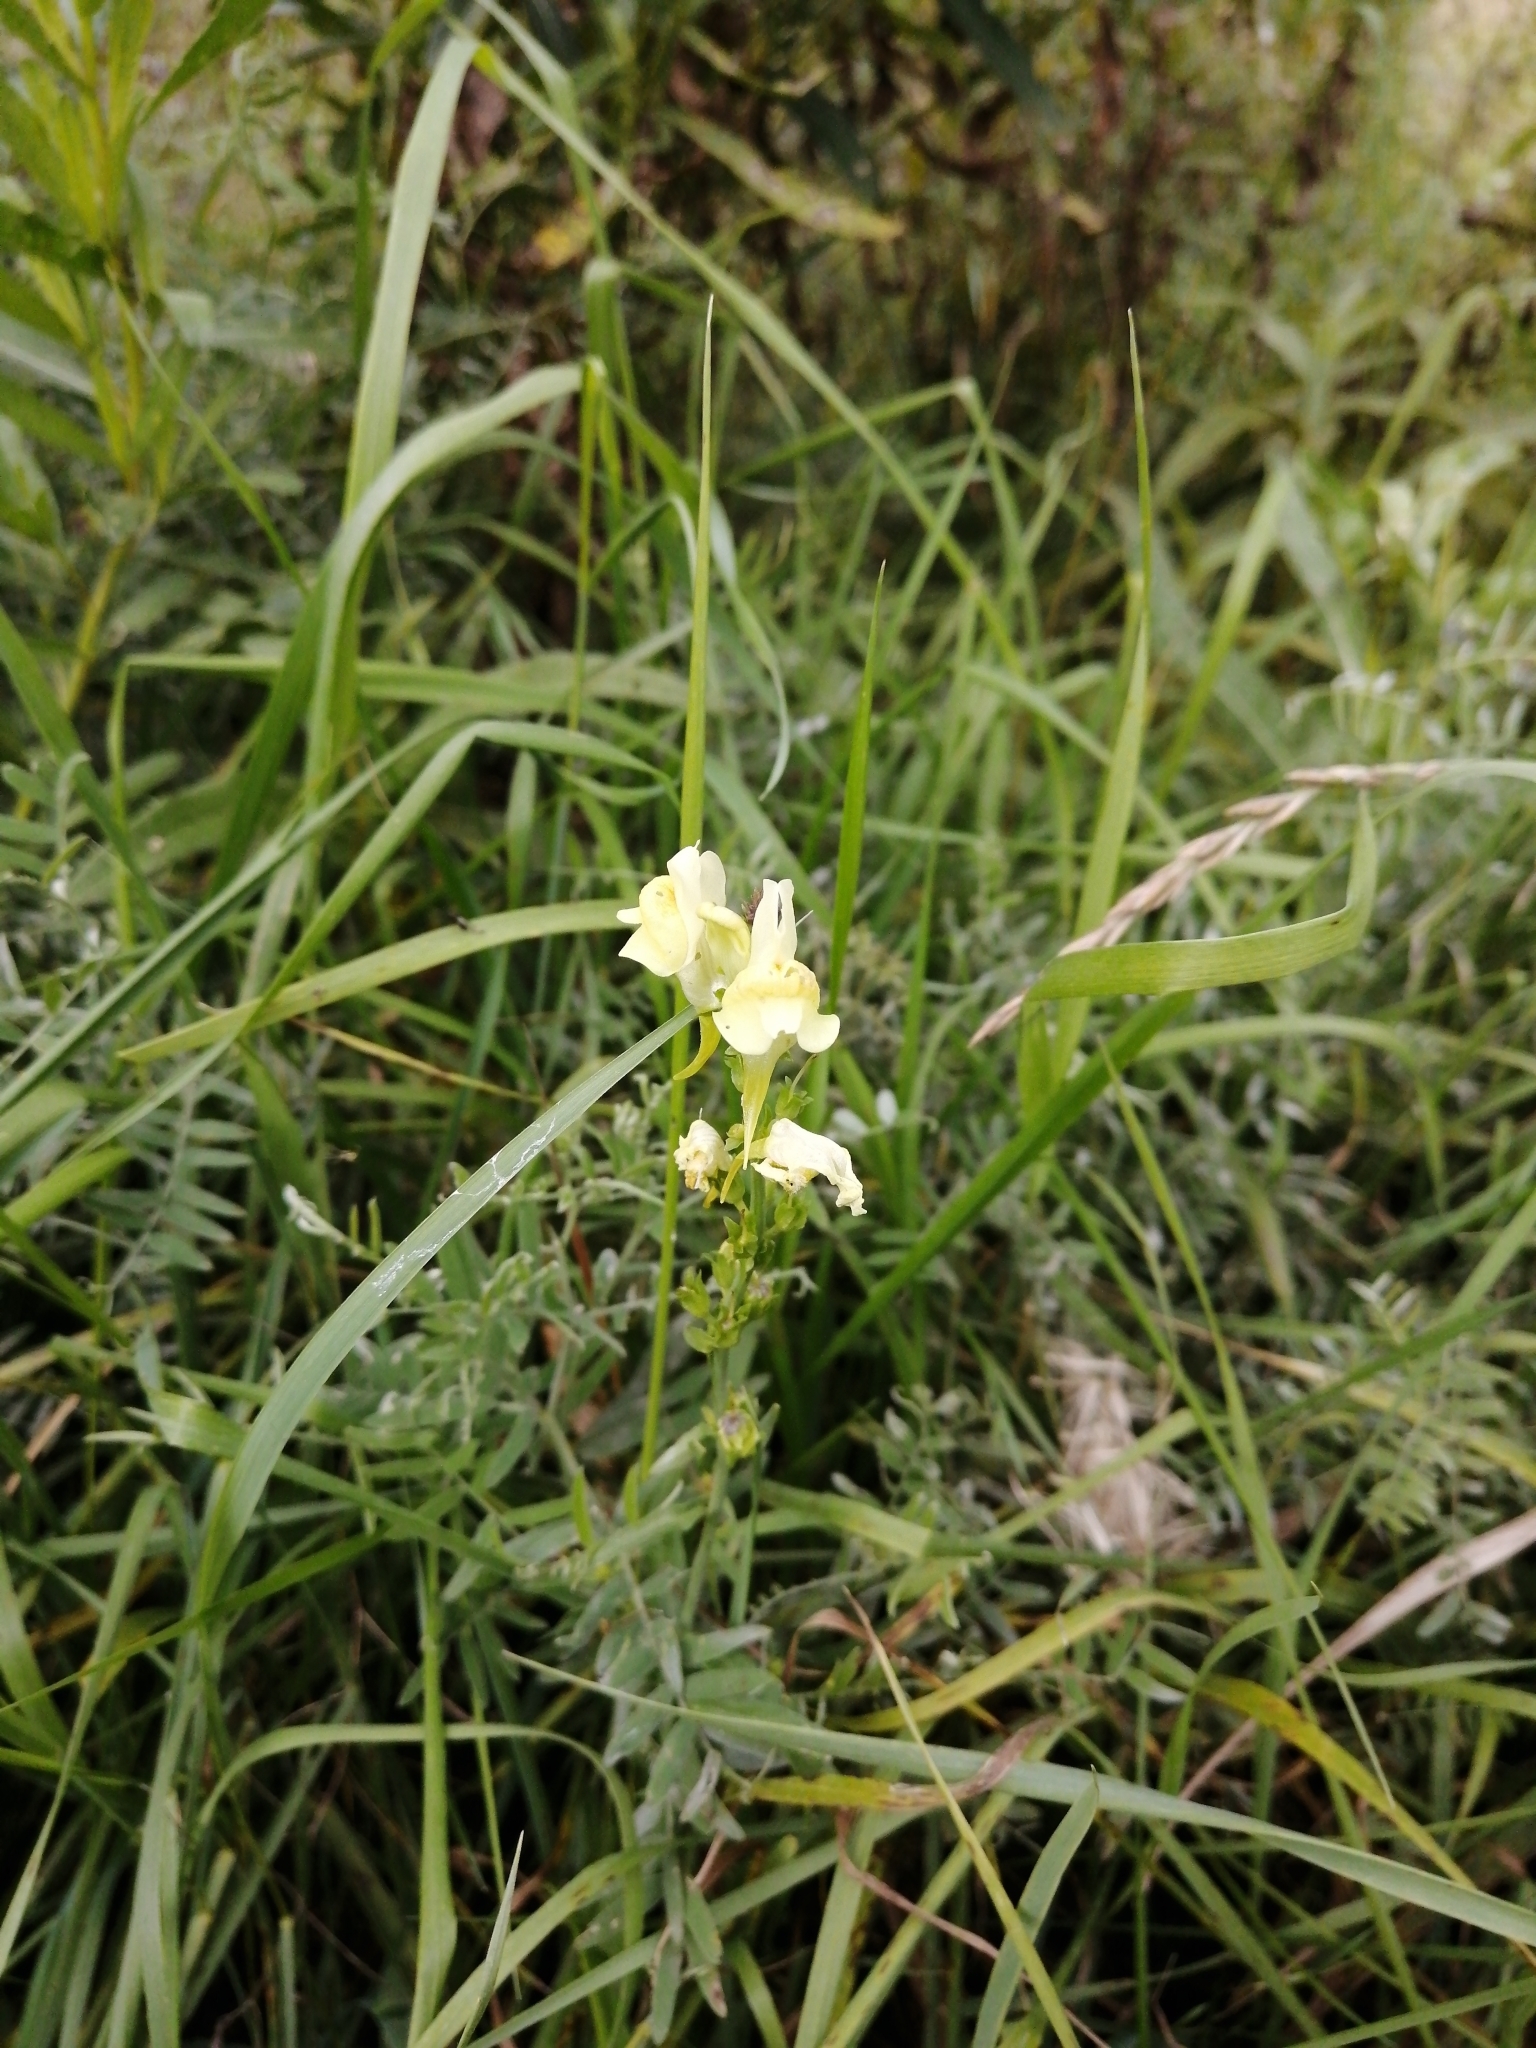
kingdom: Plantae
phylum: Tracheophyta
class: Magnoliopsida
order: Lamiales
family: Plantaginaceae
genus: Linaria
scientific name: Linaria vulgaris
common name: Butter and eggs
